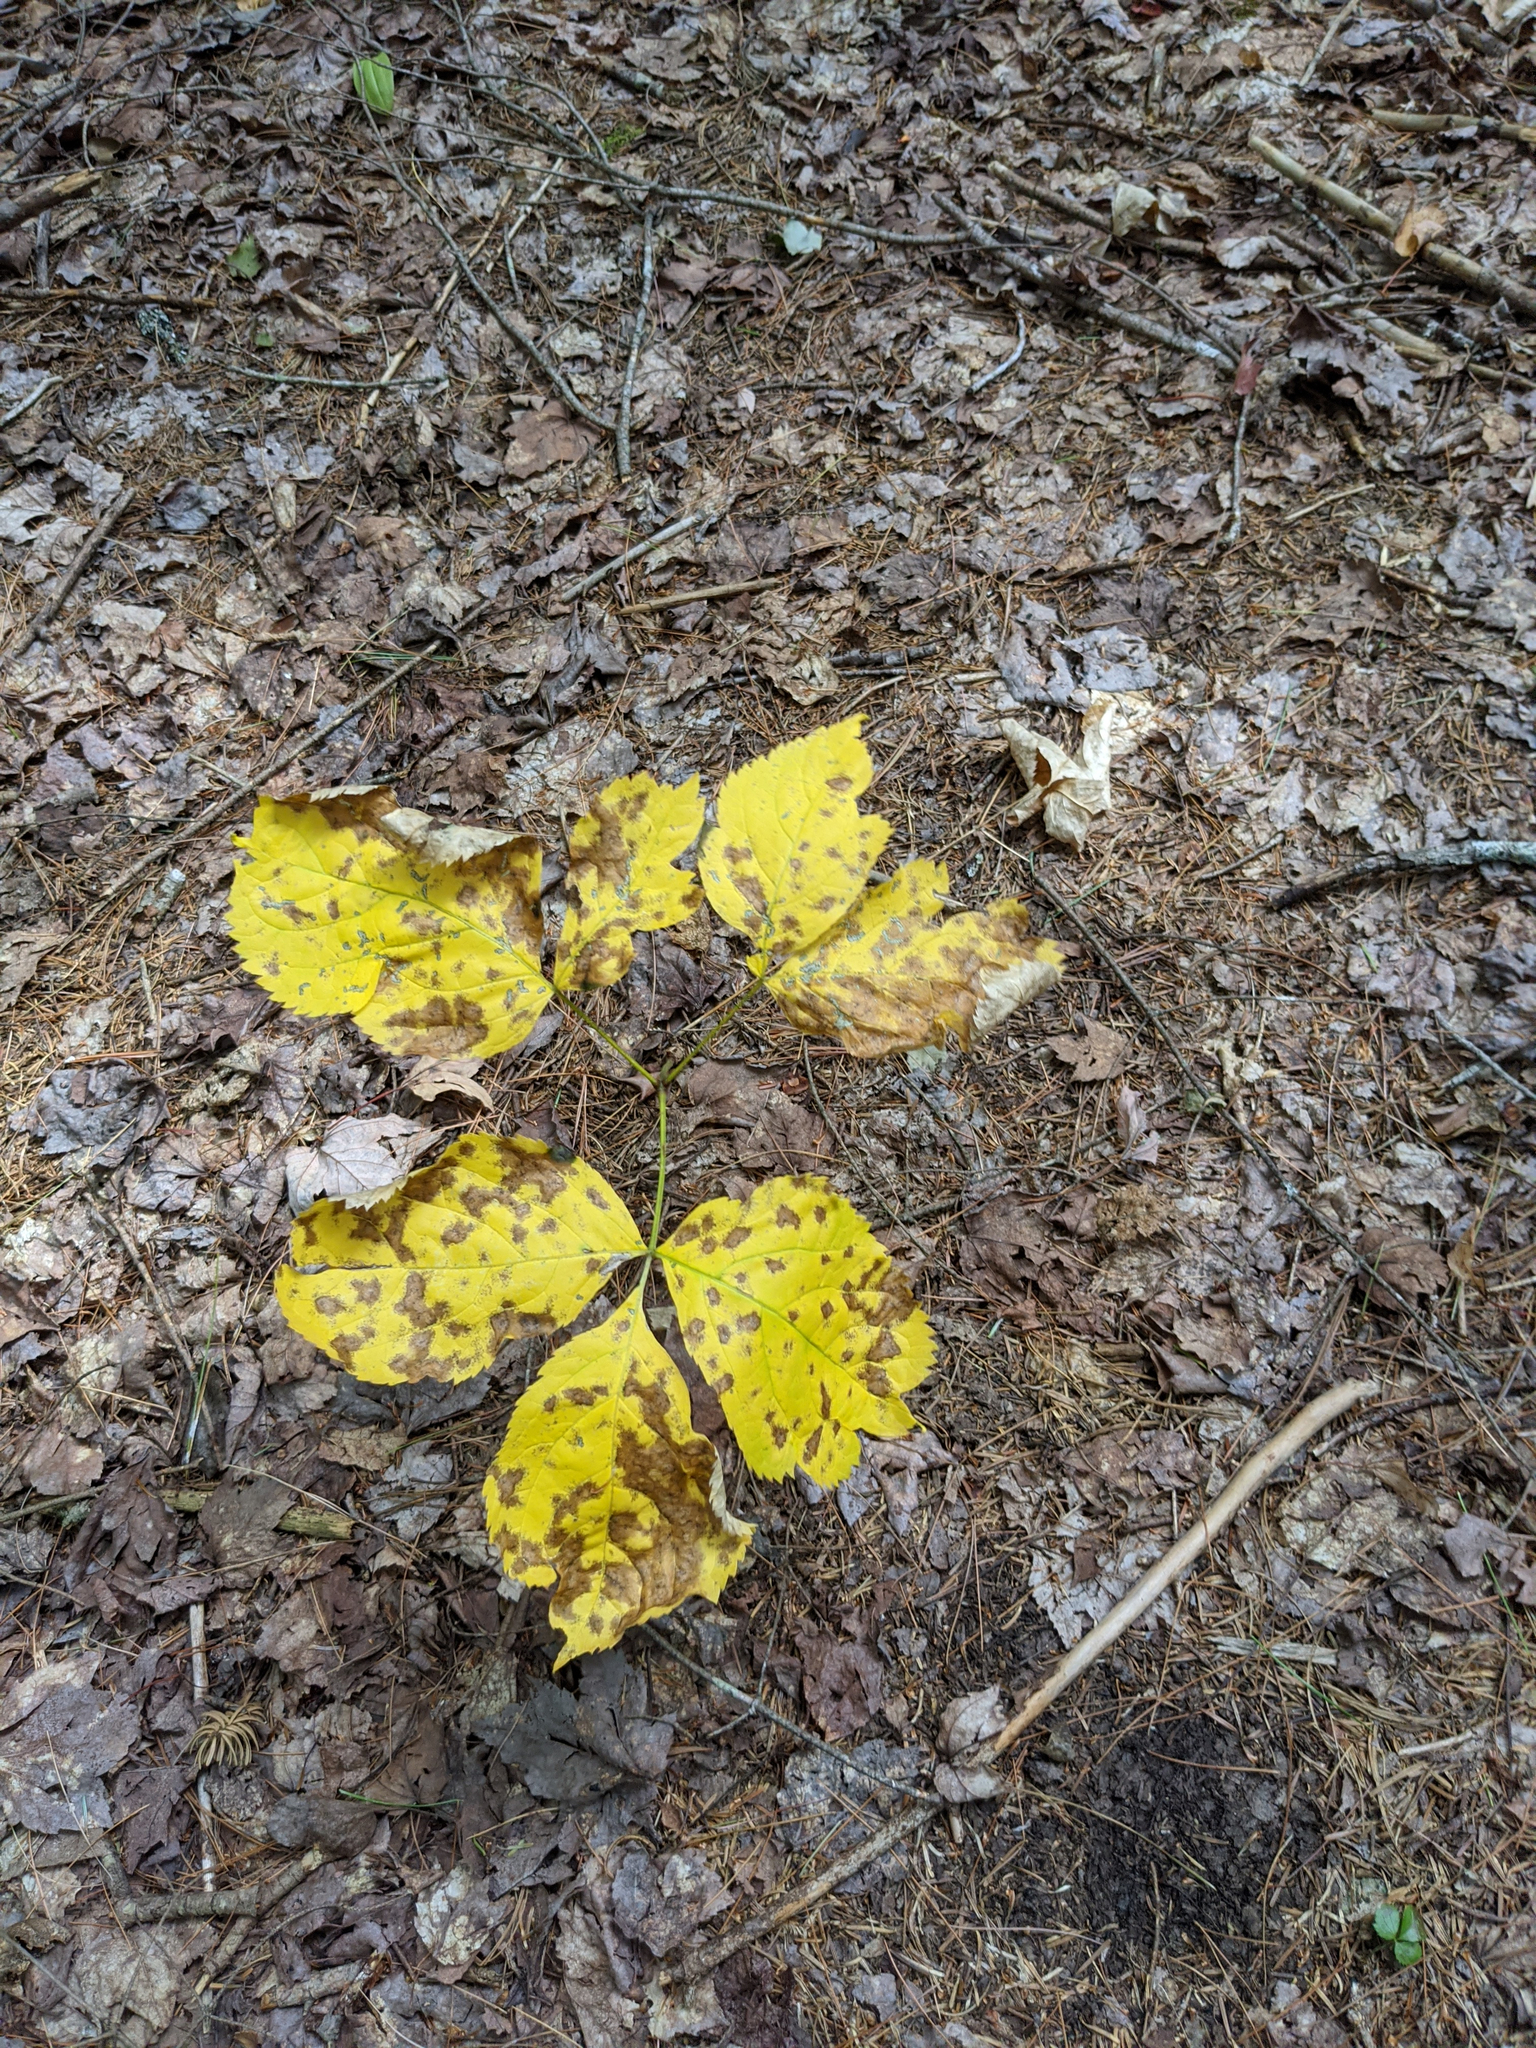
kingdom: Plantae
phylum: Tracheophyta
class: Magnoliopsida
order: Apiales
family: Araliaceae
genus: Aralia
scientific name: Aralia nudicaulis
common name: Wild sarsaparilla
